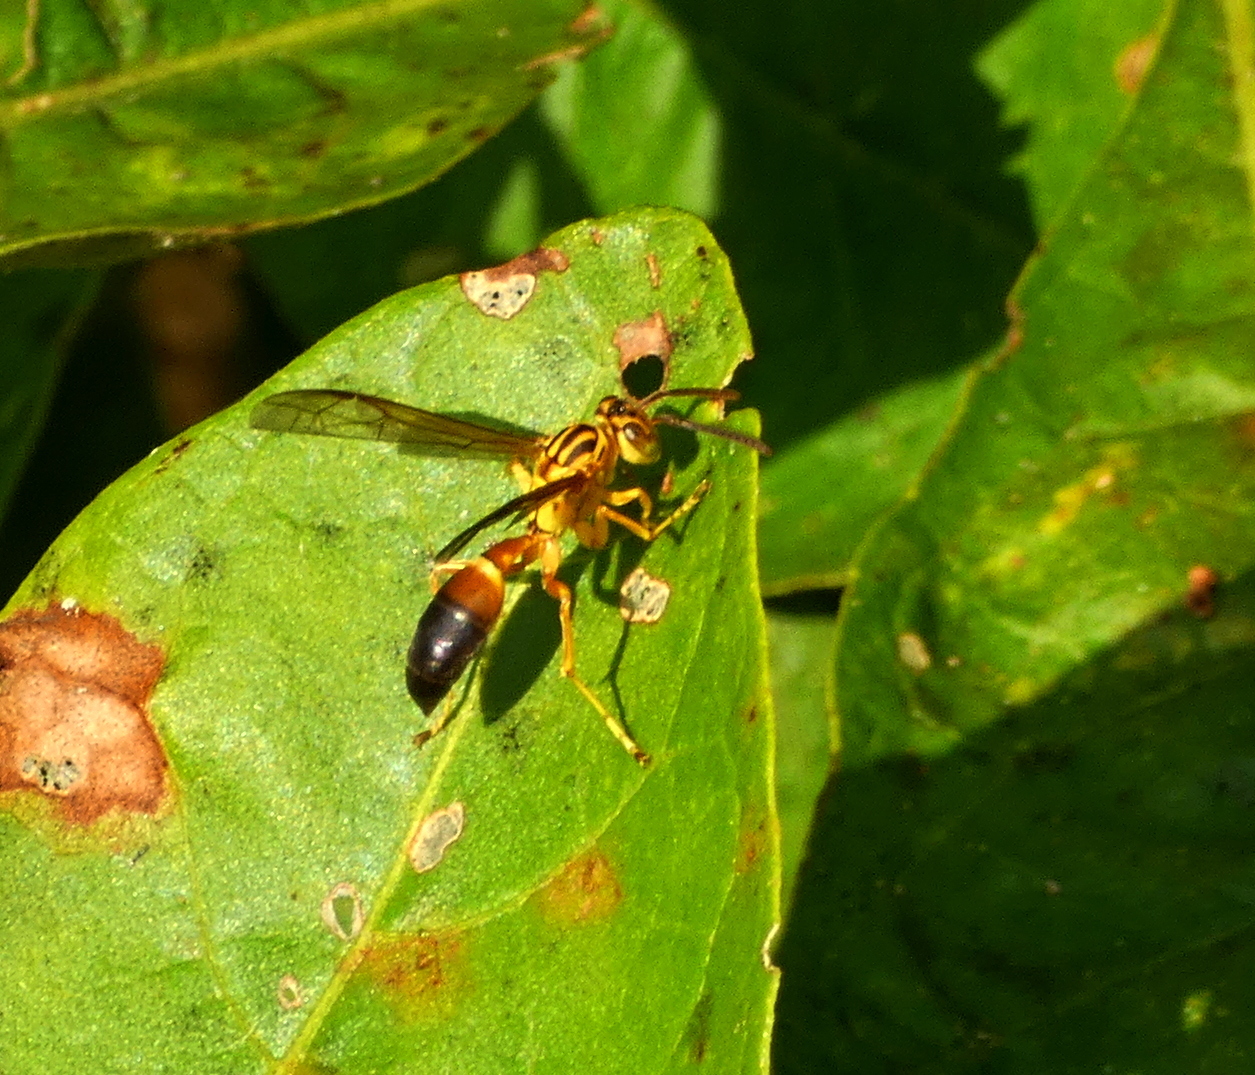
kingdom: Animalia
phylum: Arthropoda
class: Insecta
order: Hymenoptera
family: Vespidae
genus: Agelaia
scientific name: Agelaia pallipes
